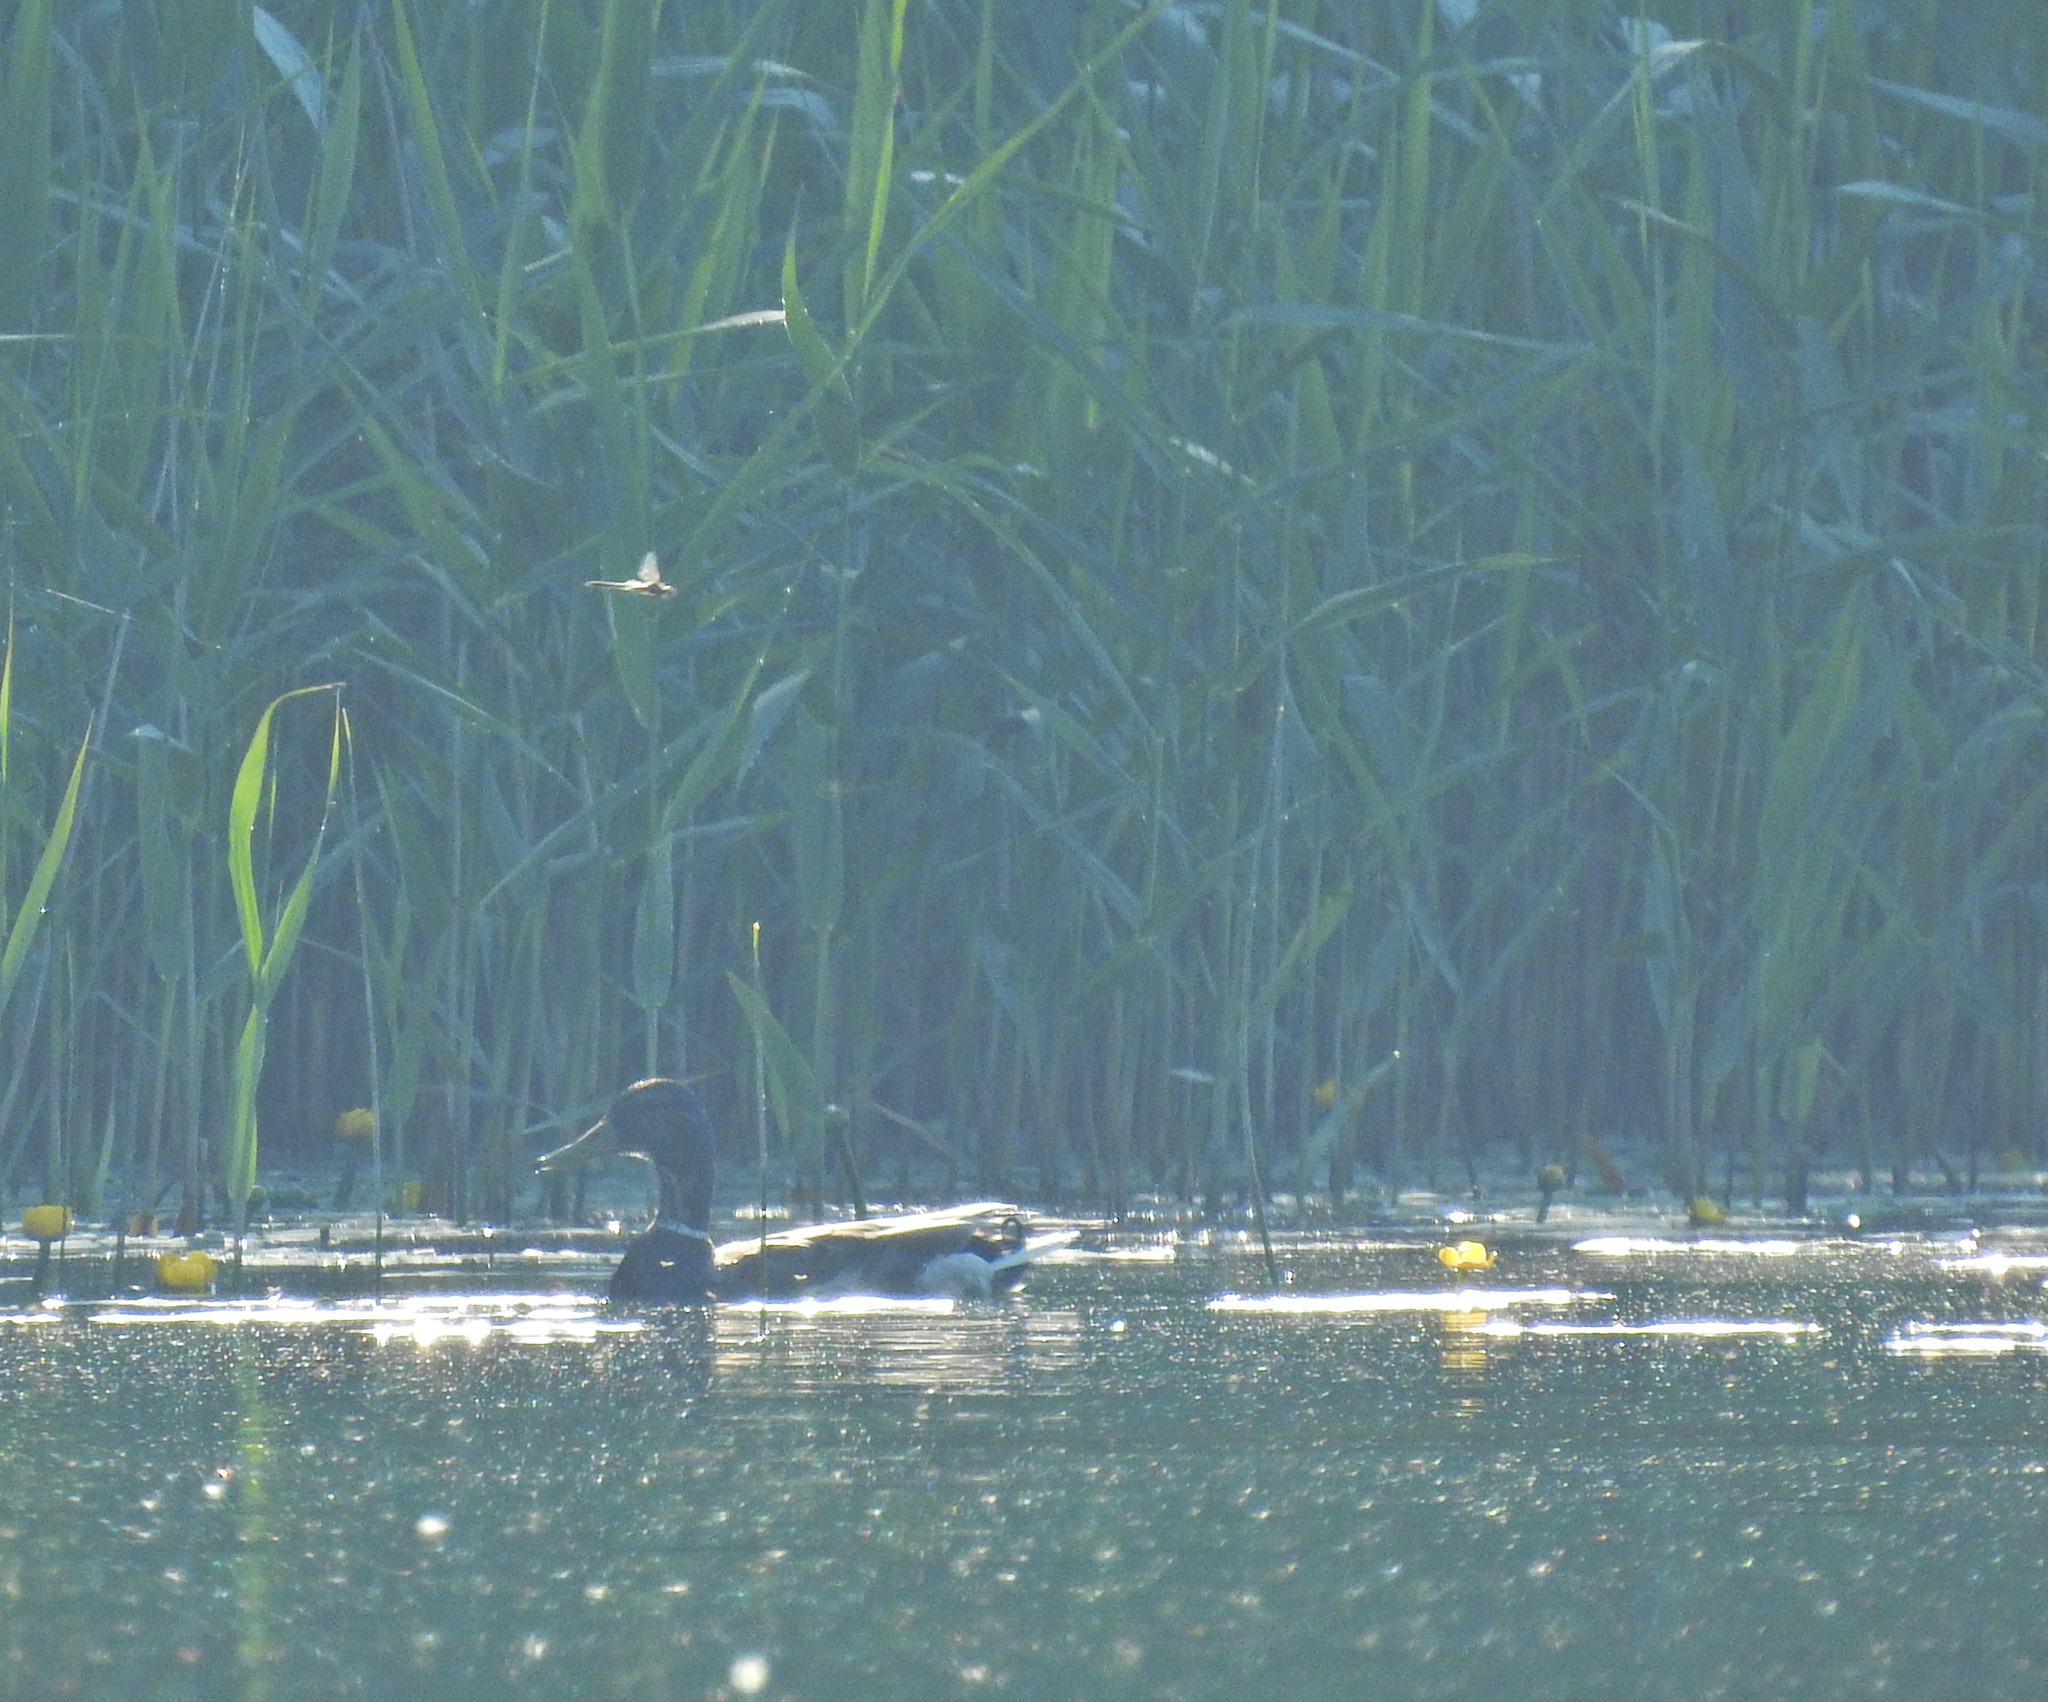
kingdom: Animalia
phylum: Chordata
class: Aves
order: Anseriformes
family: Anatidae
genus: Anas
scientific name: Anas platyrhynchos
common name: Mallard
